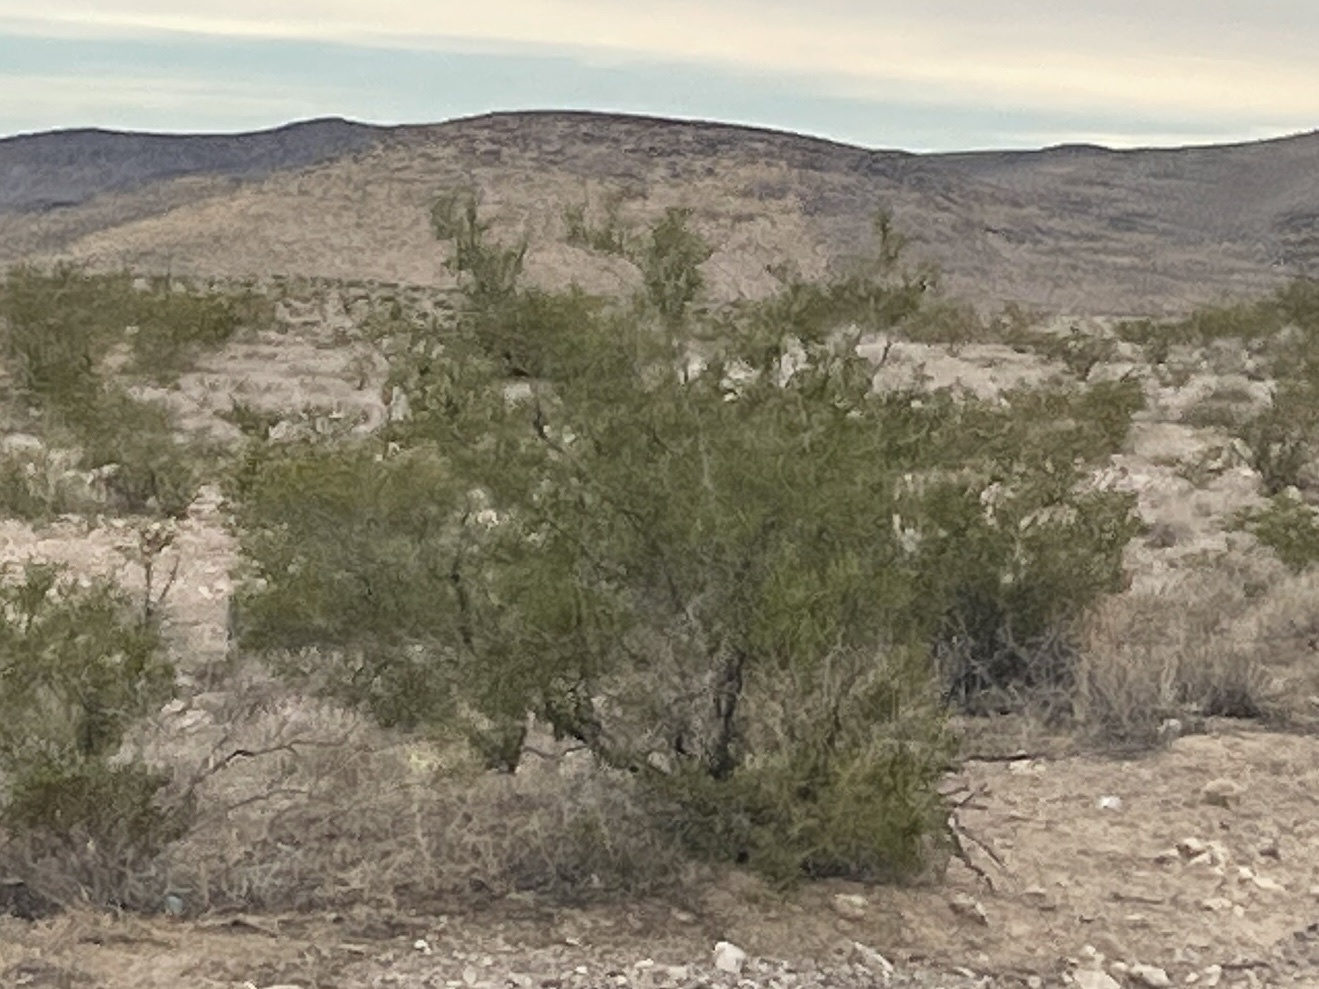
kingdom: Plantae
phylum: Tracheophyta
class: Magnoliopsida
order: Zygophyllales
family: Zygophyllaceae
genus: Larrea
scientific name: Larrea tridentata
